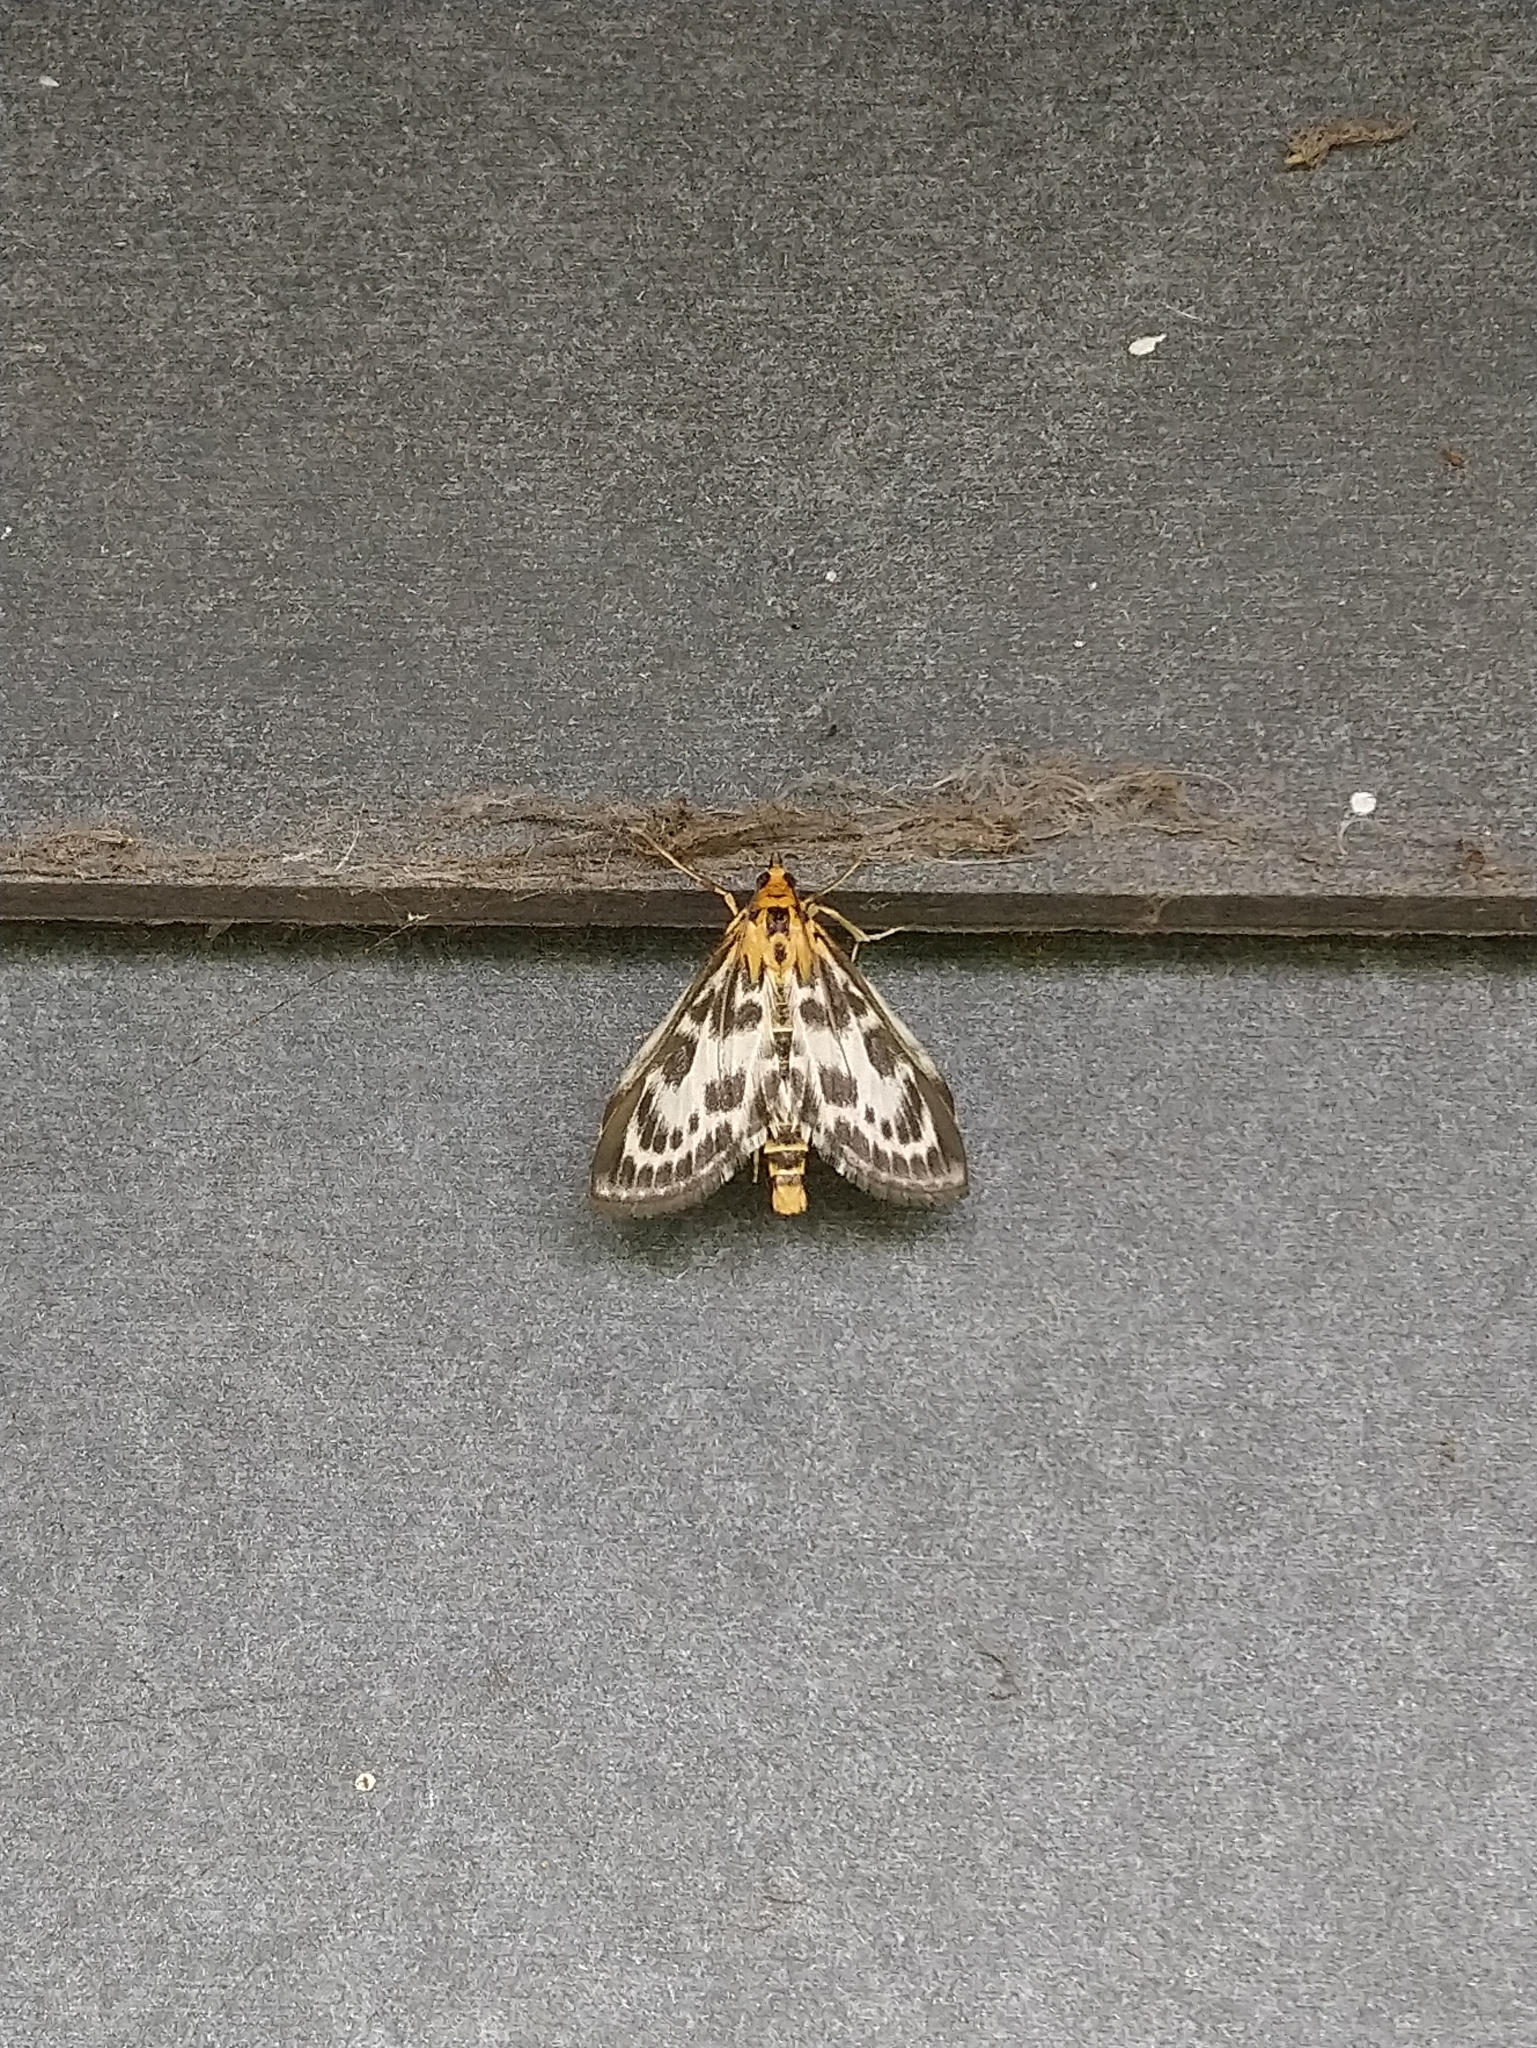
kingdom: Animalia
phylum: Arthropoda
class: Insecta
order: Lepidoptera
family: Crambidae
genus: Anania
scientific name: Anania hortulata
